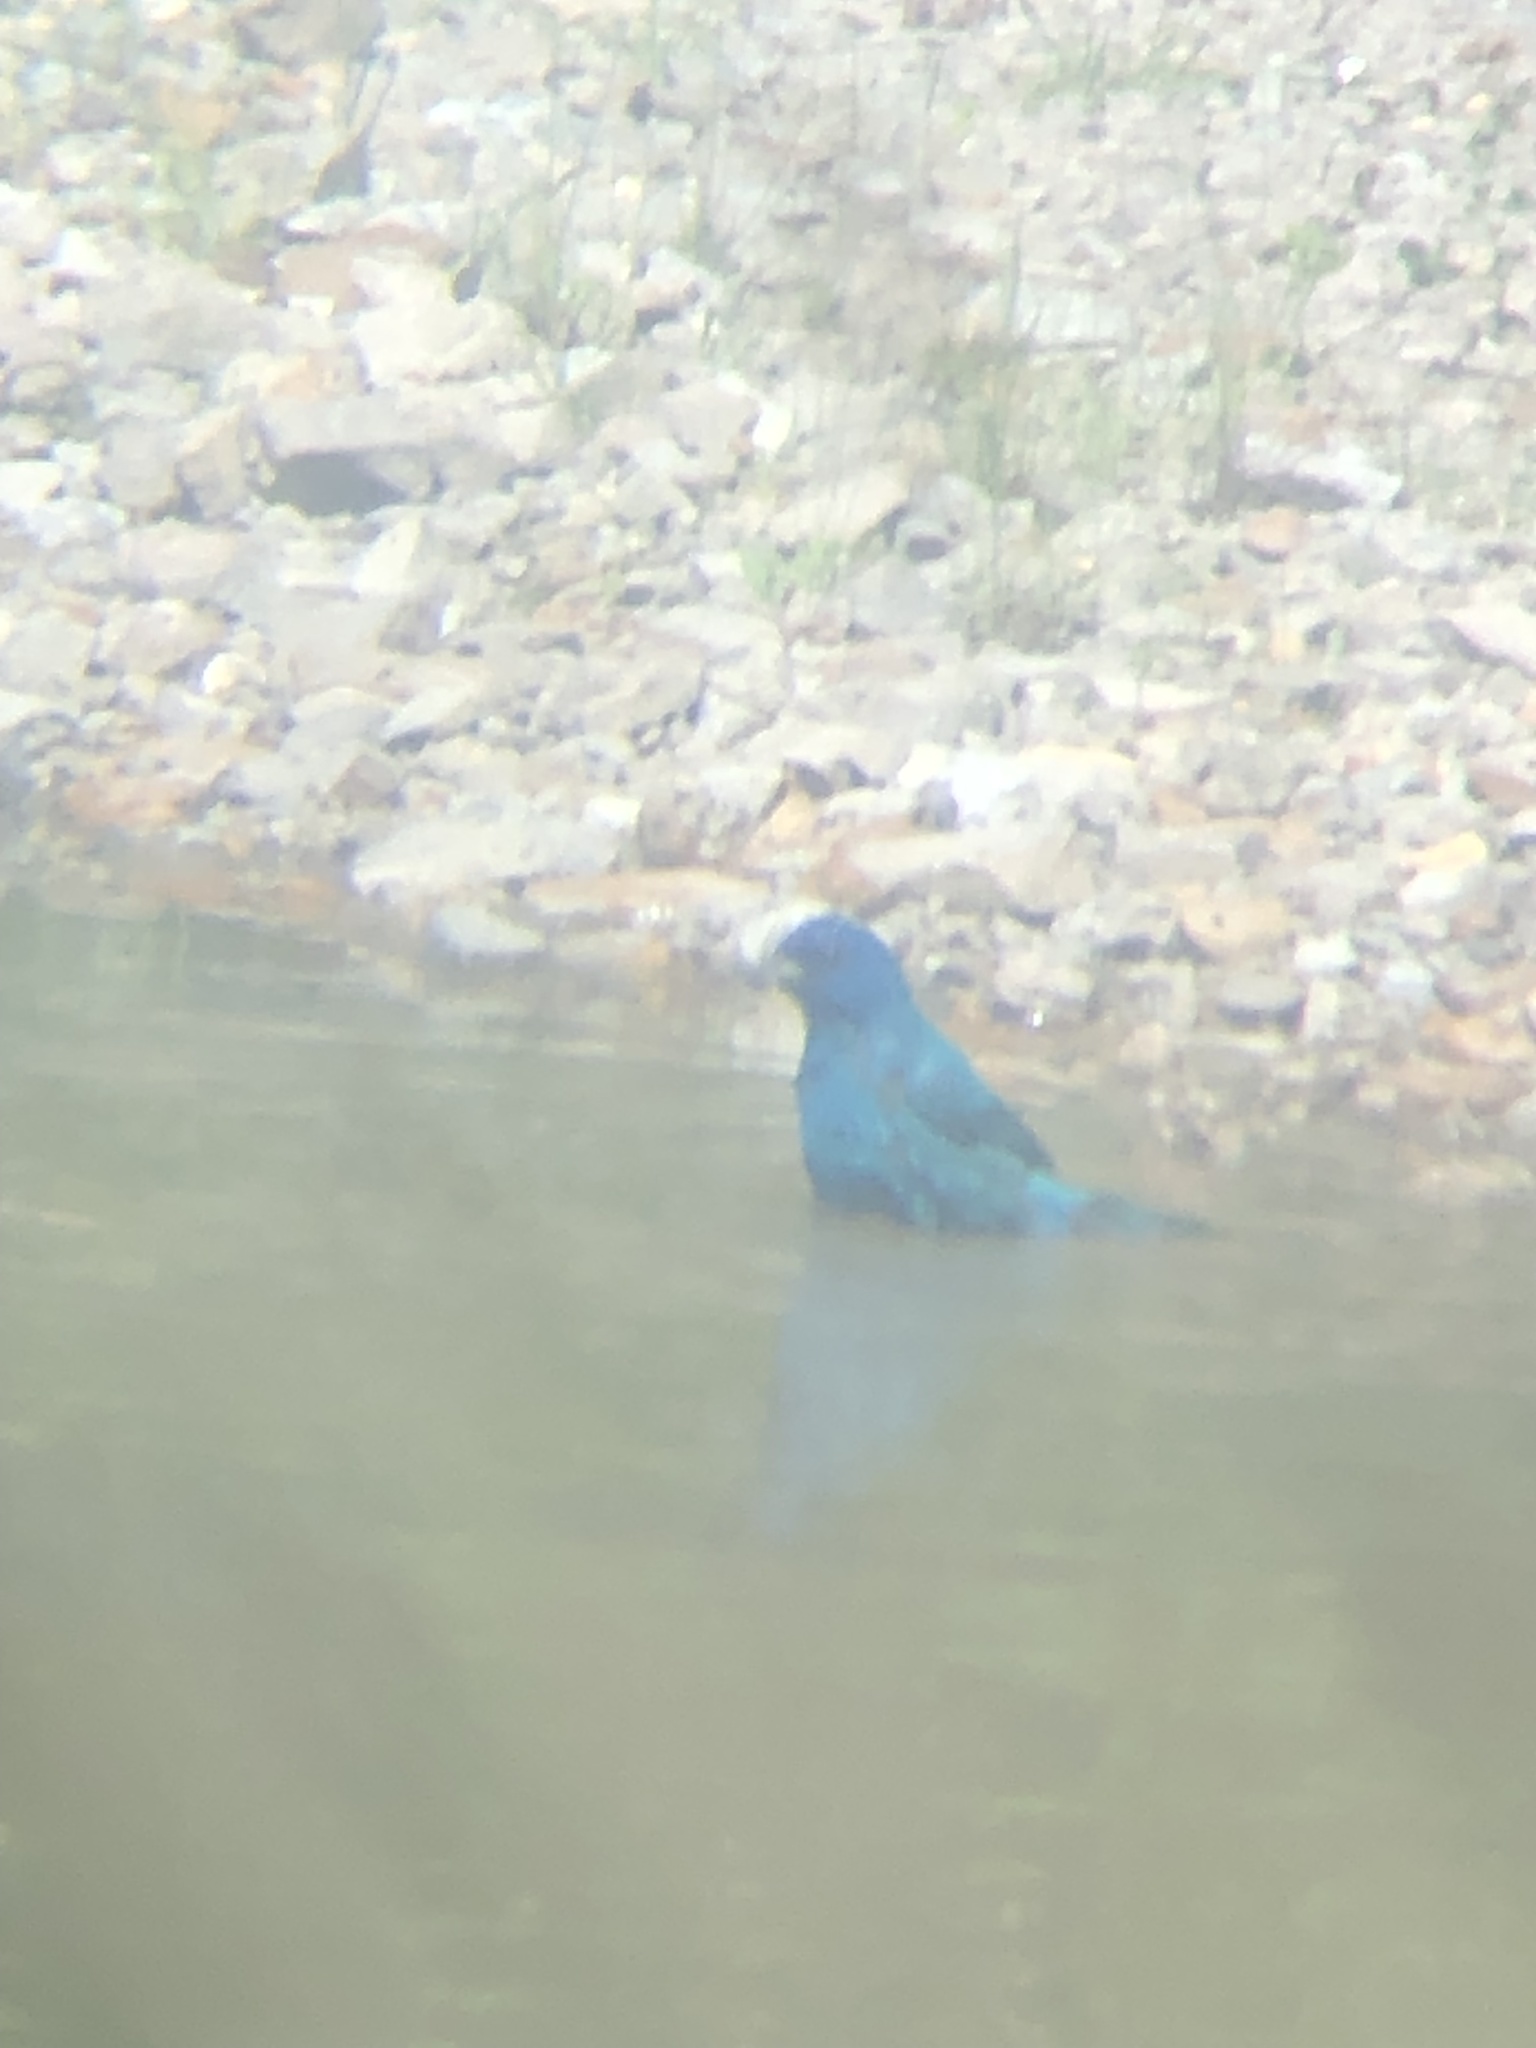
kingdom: Animalia
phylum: Chordata
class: Aves
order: Passeriformes
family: Cardinalidae
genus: Passerina
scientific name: Passerina cyanea
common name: Indigo bunting
